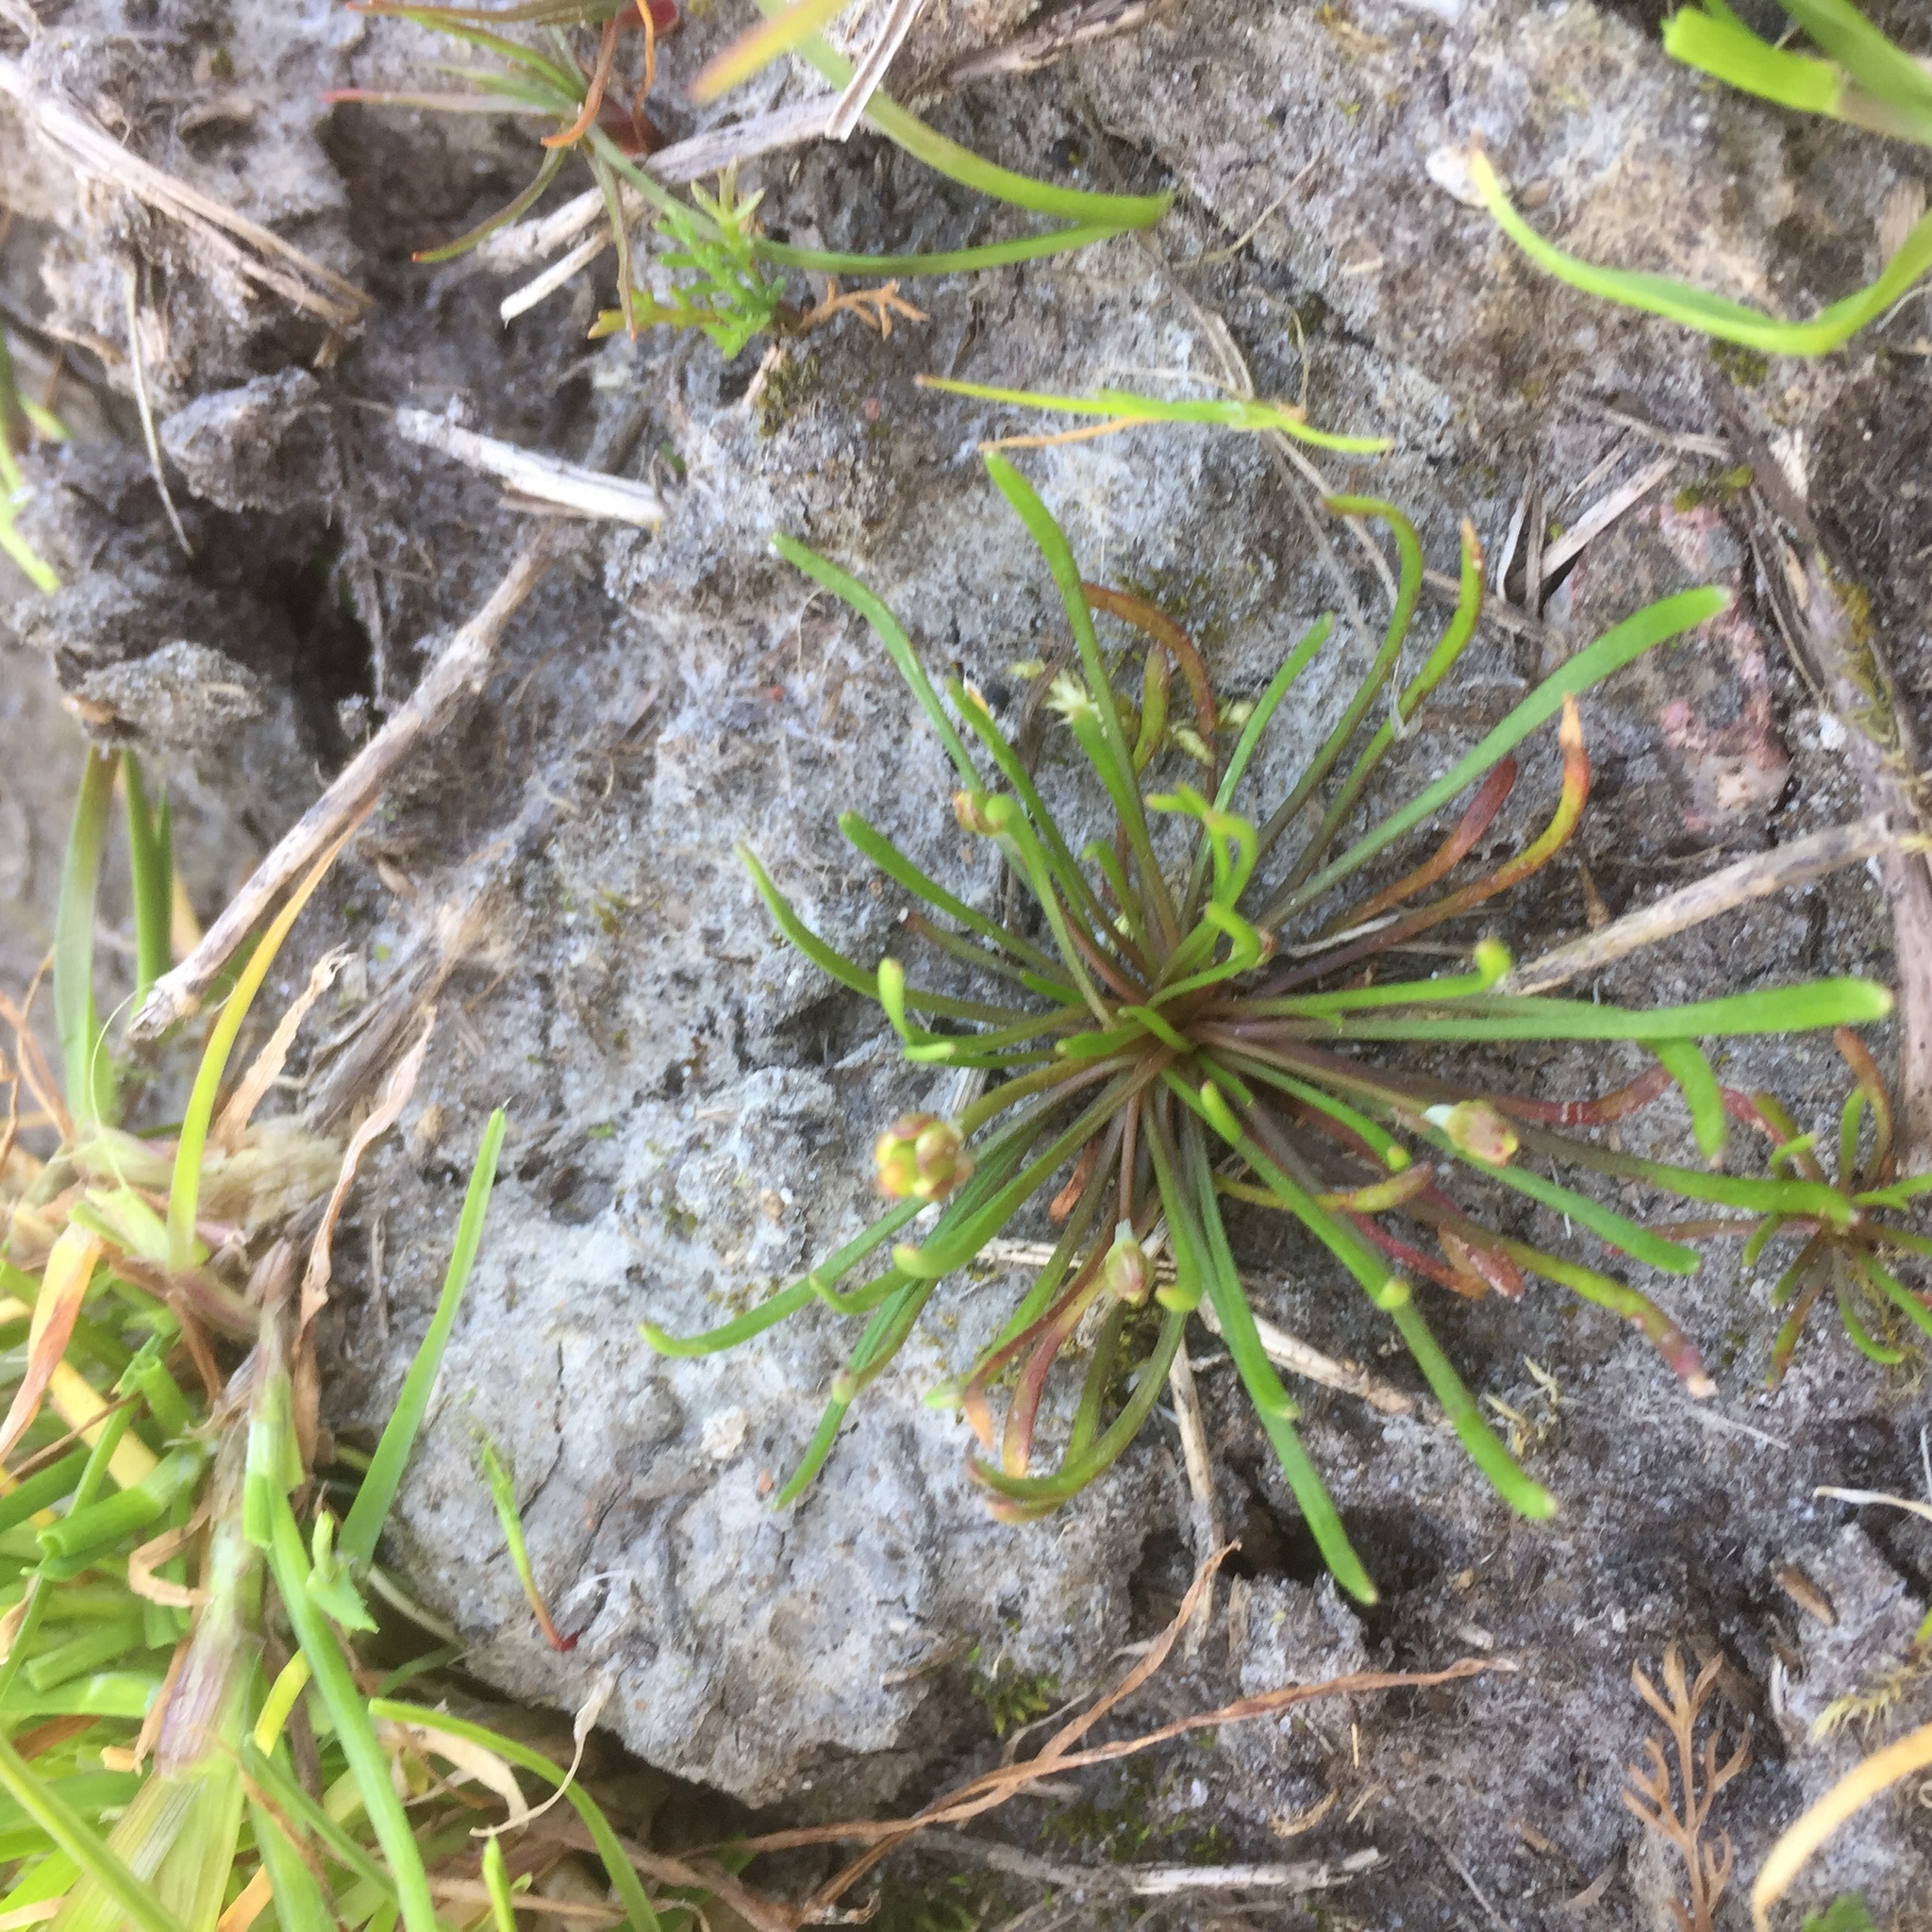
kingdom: Plantae
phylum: Tracheophyta
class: Magnoliopsida
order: Ranunculales
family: Ranunculaceae
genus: Myosurus
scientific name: Myosurus minimus
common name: Mousetail
